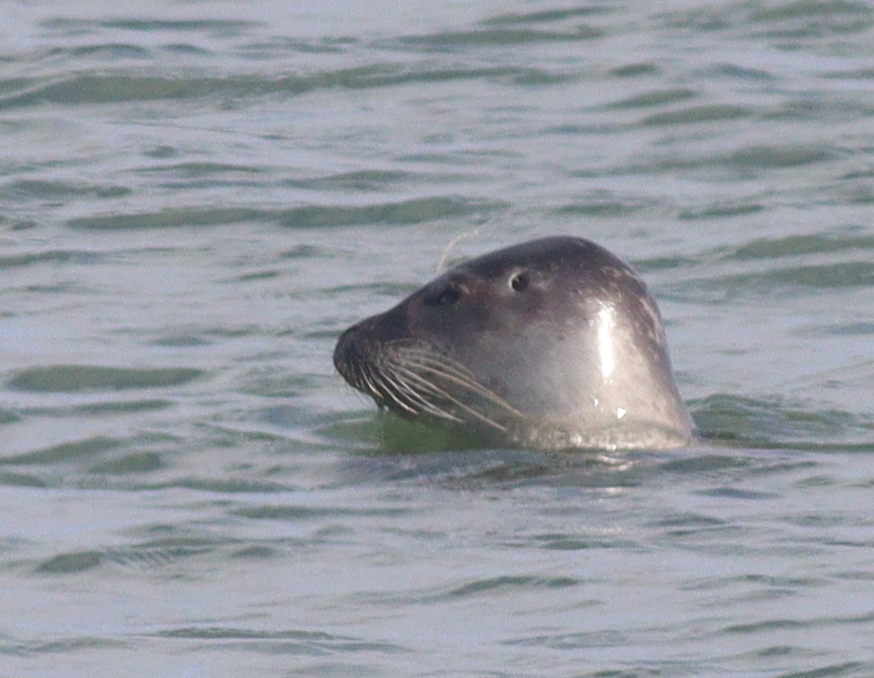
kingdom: Animalia
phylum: Chordata
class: Mammalia
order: Carnivora
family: Phocidae
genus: Phoca
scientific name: Phoca vitulina
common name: Harbor seal
